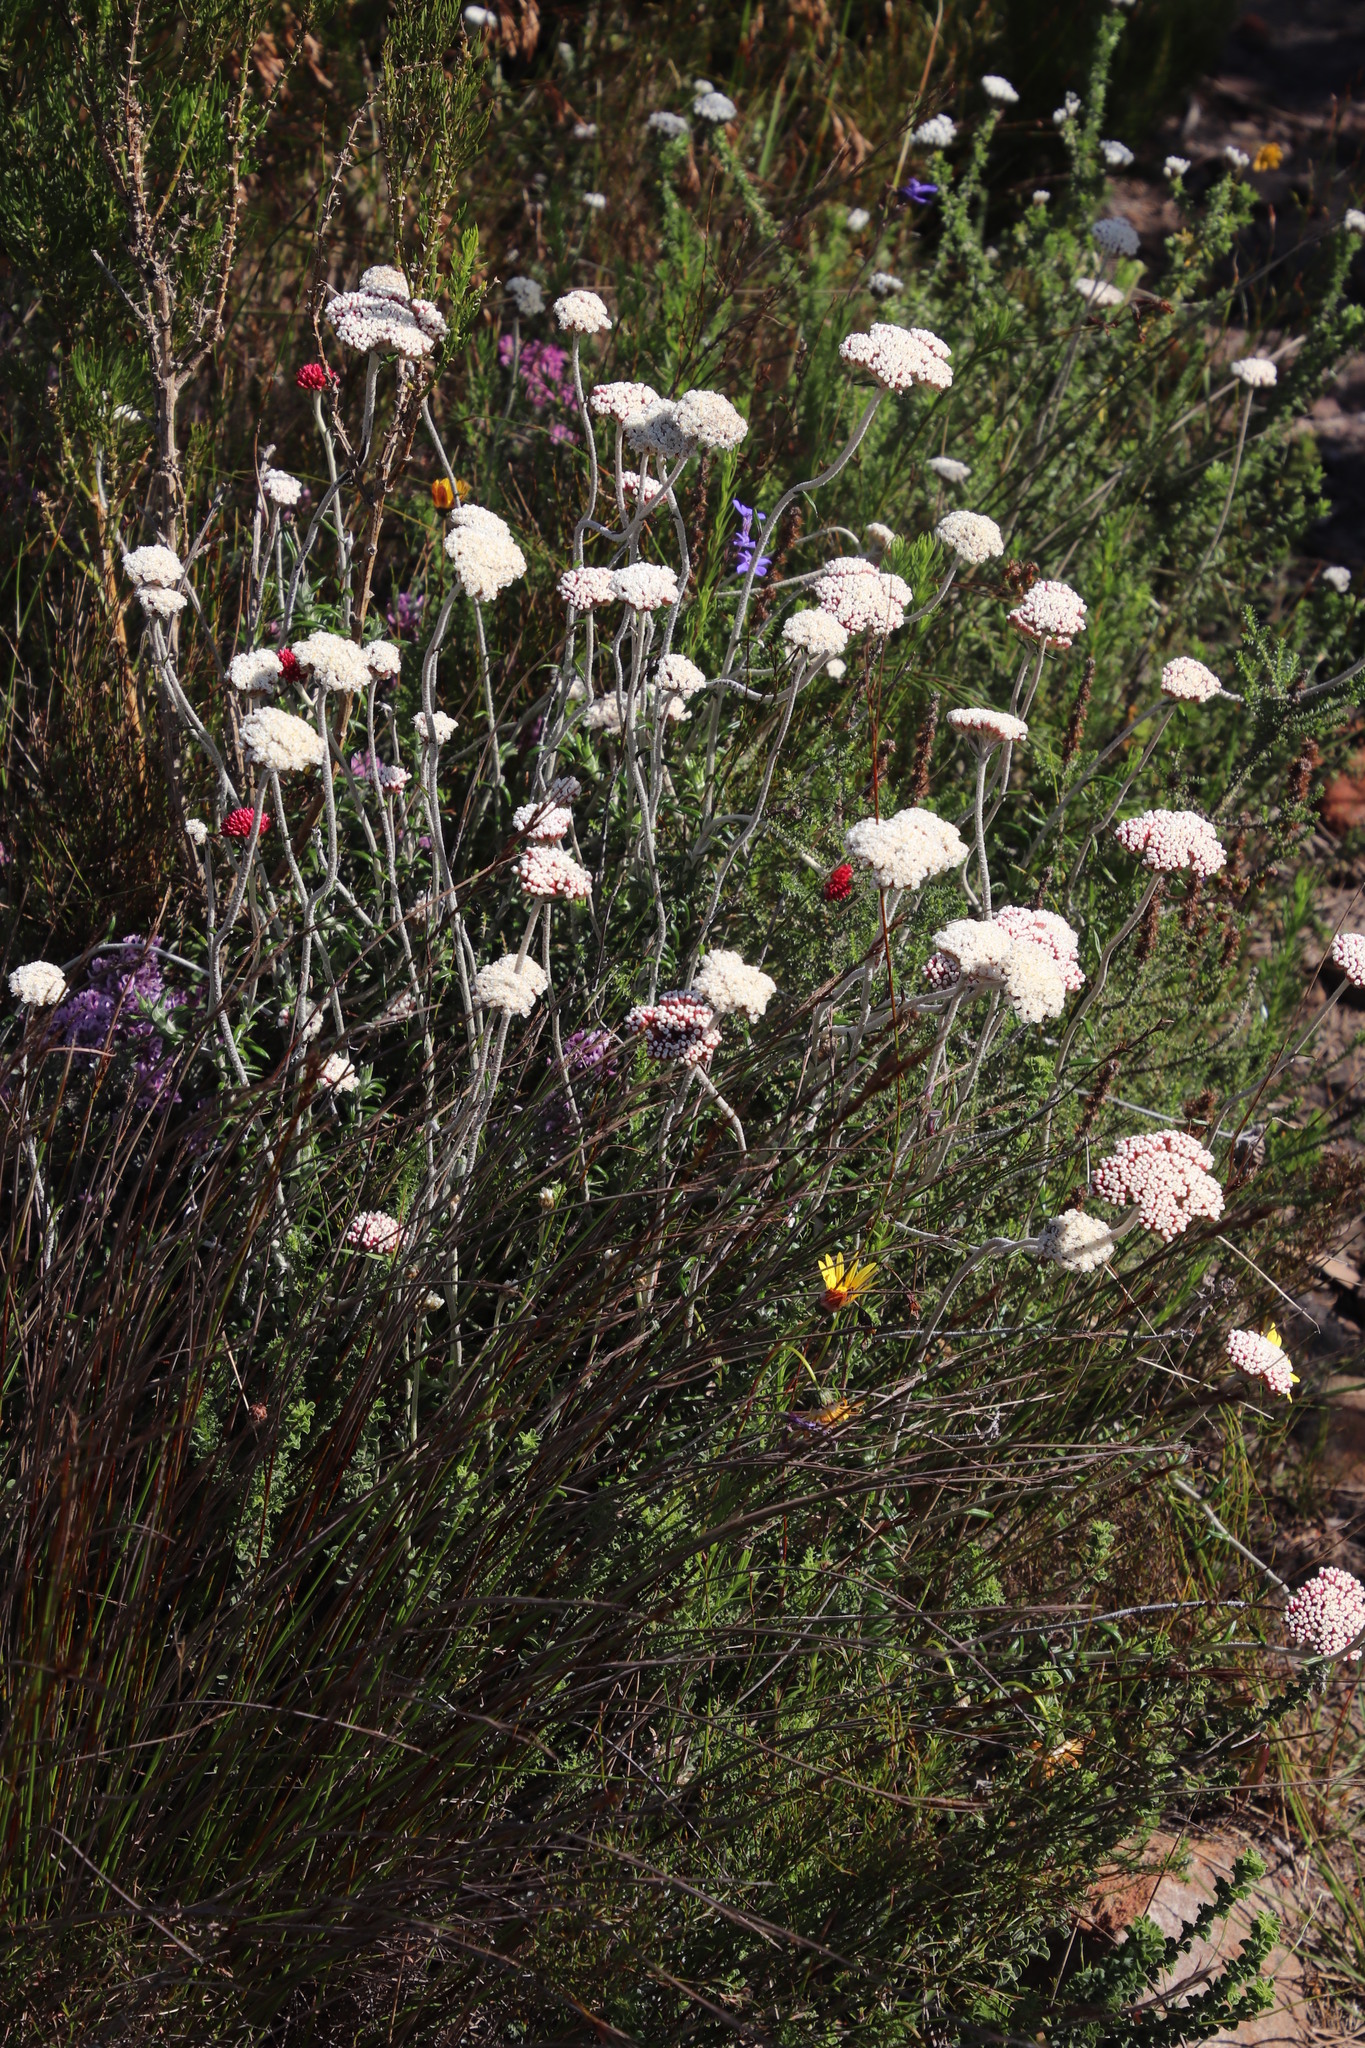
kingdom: Plantae
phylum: Tracheophyta
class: Magnoliopsida
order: Asterales
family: Asteraceae
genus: Anaxeton
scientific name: Anaxeton arborescens
